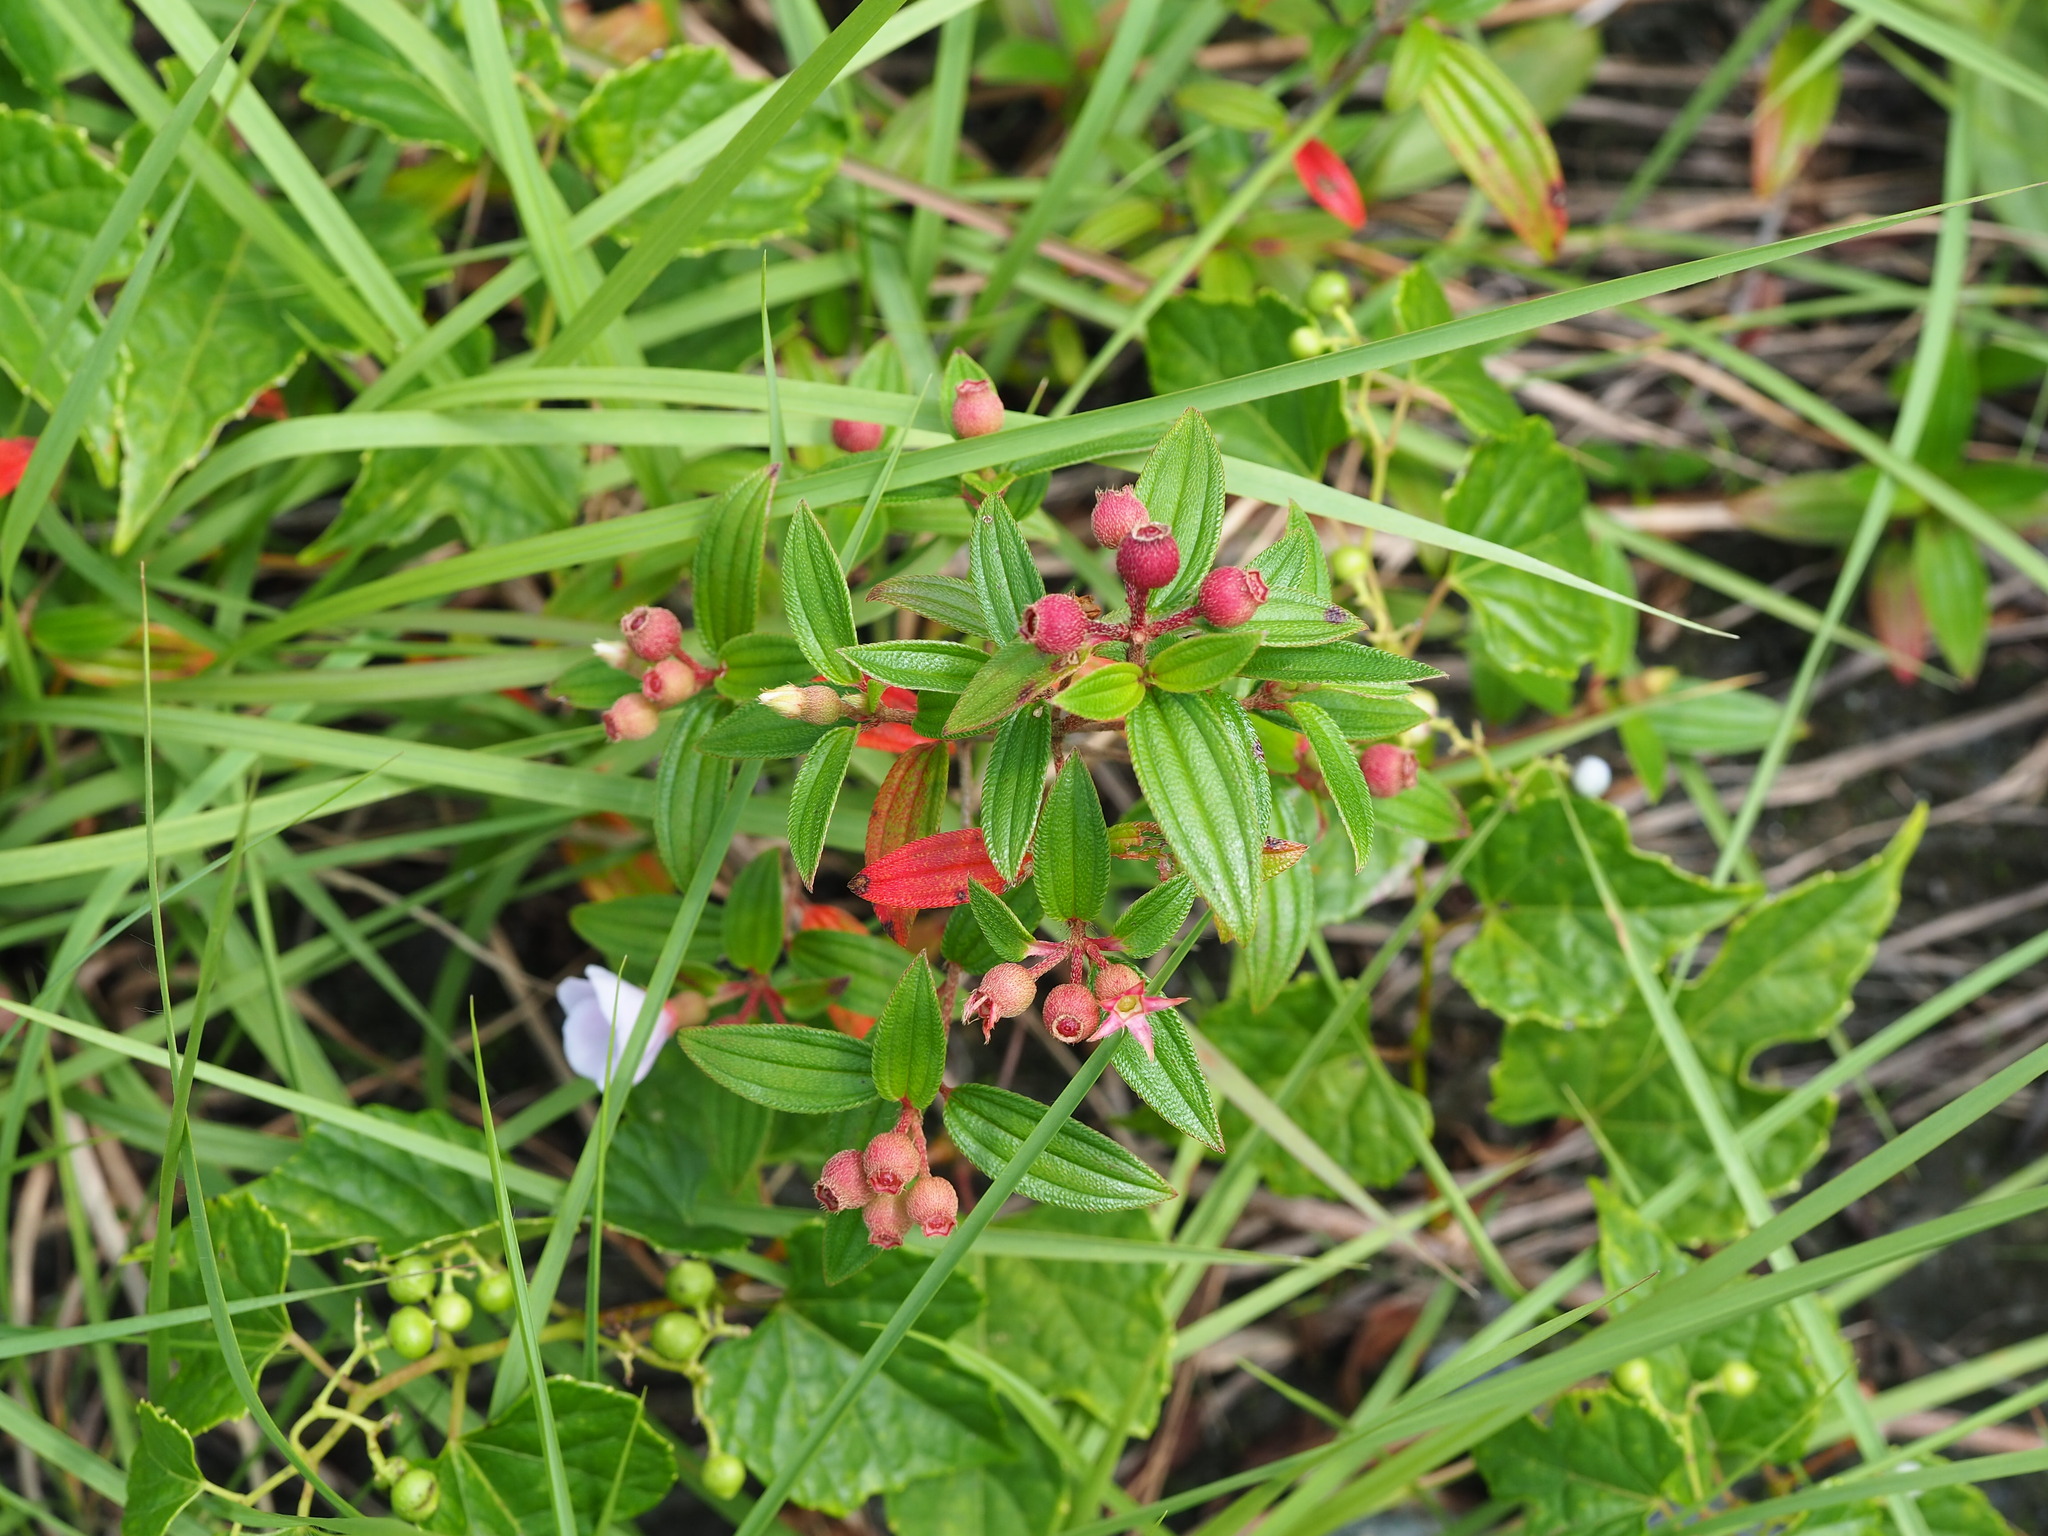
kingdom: Plantae
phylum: Tracheophyta
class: Magnoliopsida
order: Myrtales
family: Melastomataceae
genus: Melastoma
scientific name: Melastoma scaberrima
